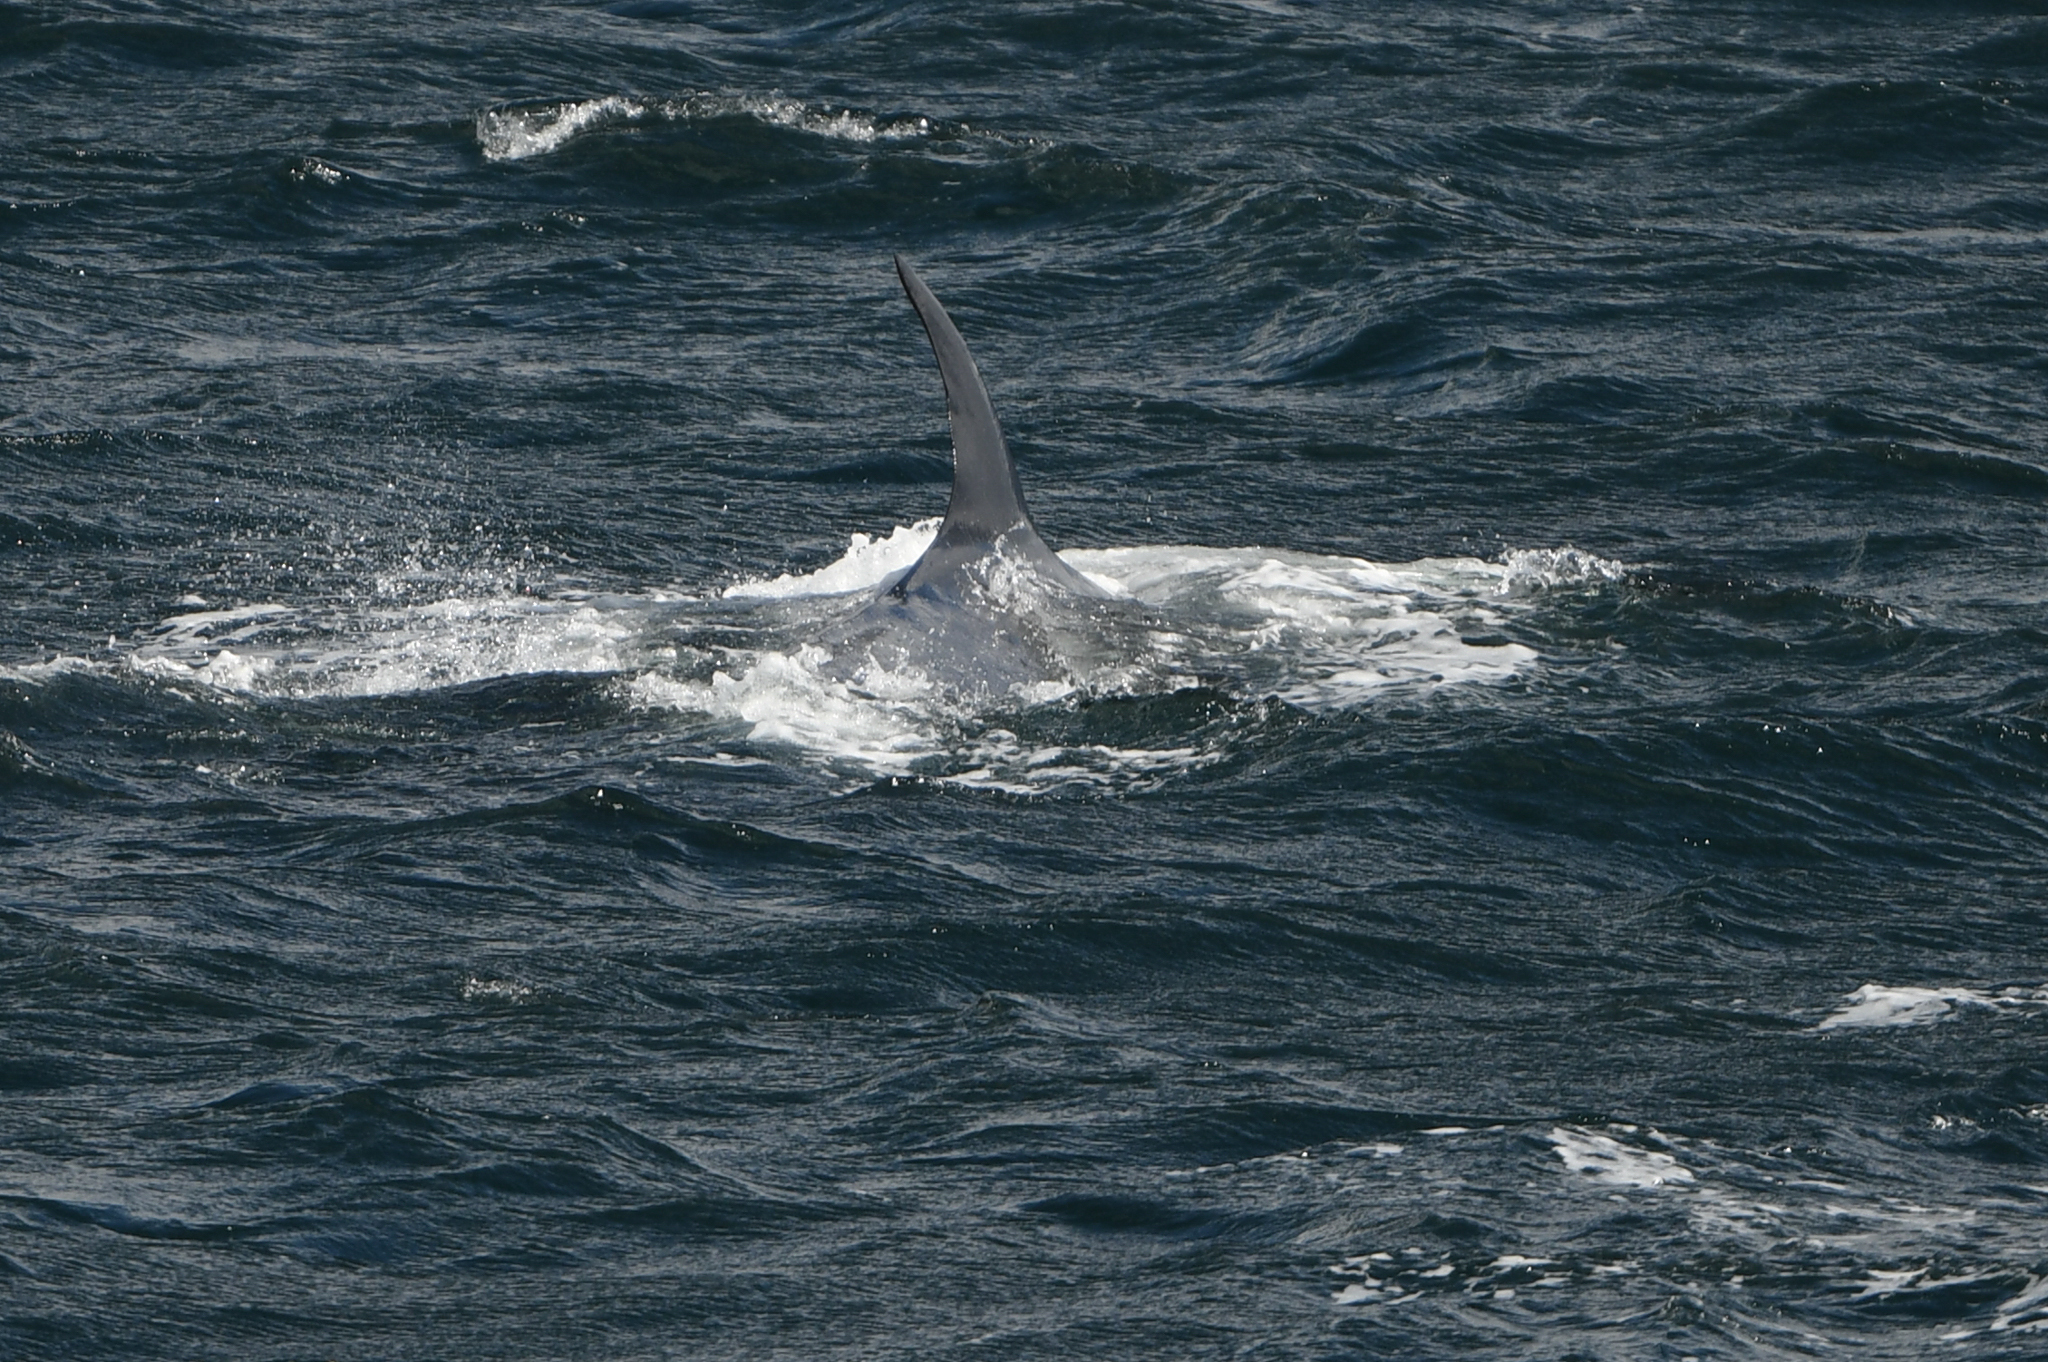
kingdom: Animalia
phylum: Chordata
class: Mammalia
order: Cetacea
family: Balaenopteridae
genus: Balaenoptera
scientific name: Balaenoptera borealis
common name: Sei whale
